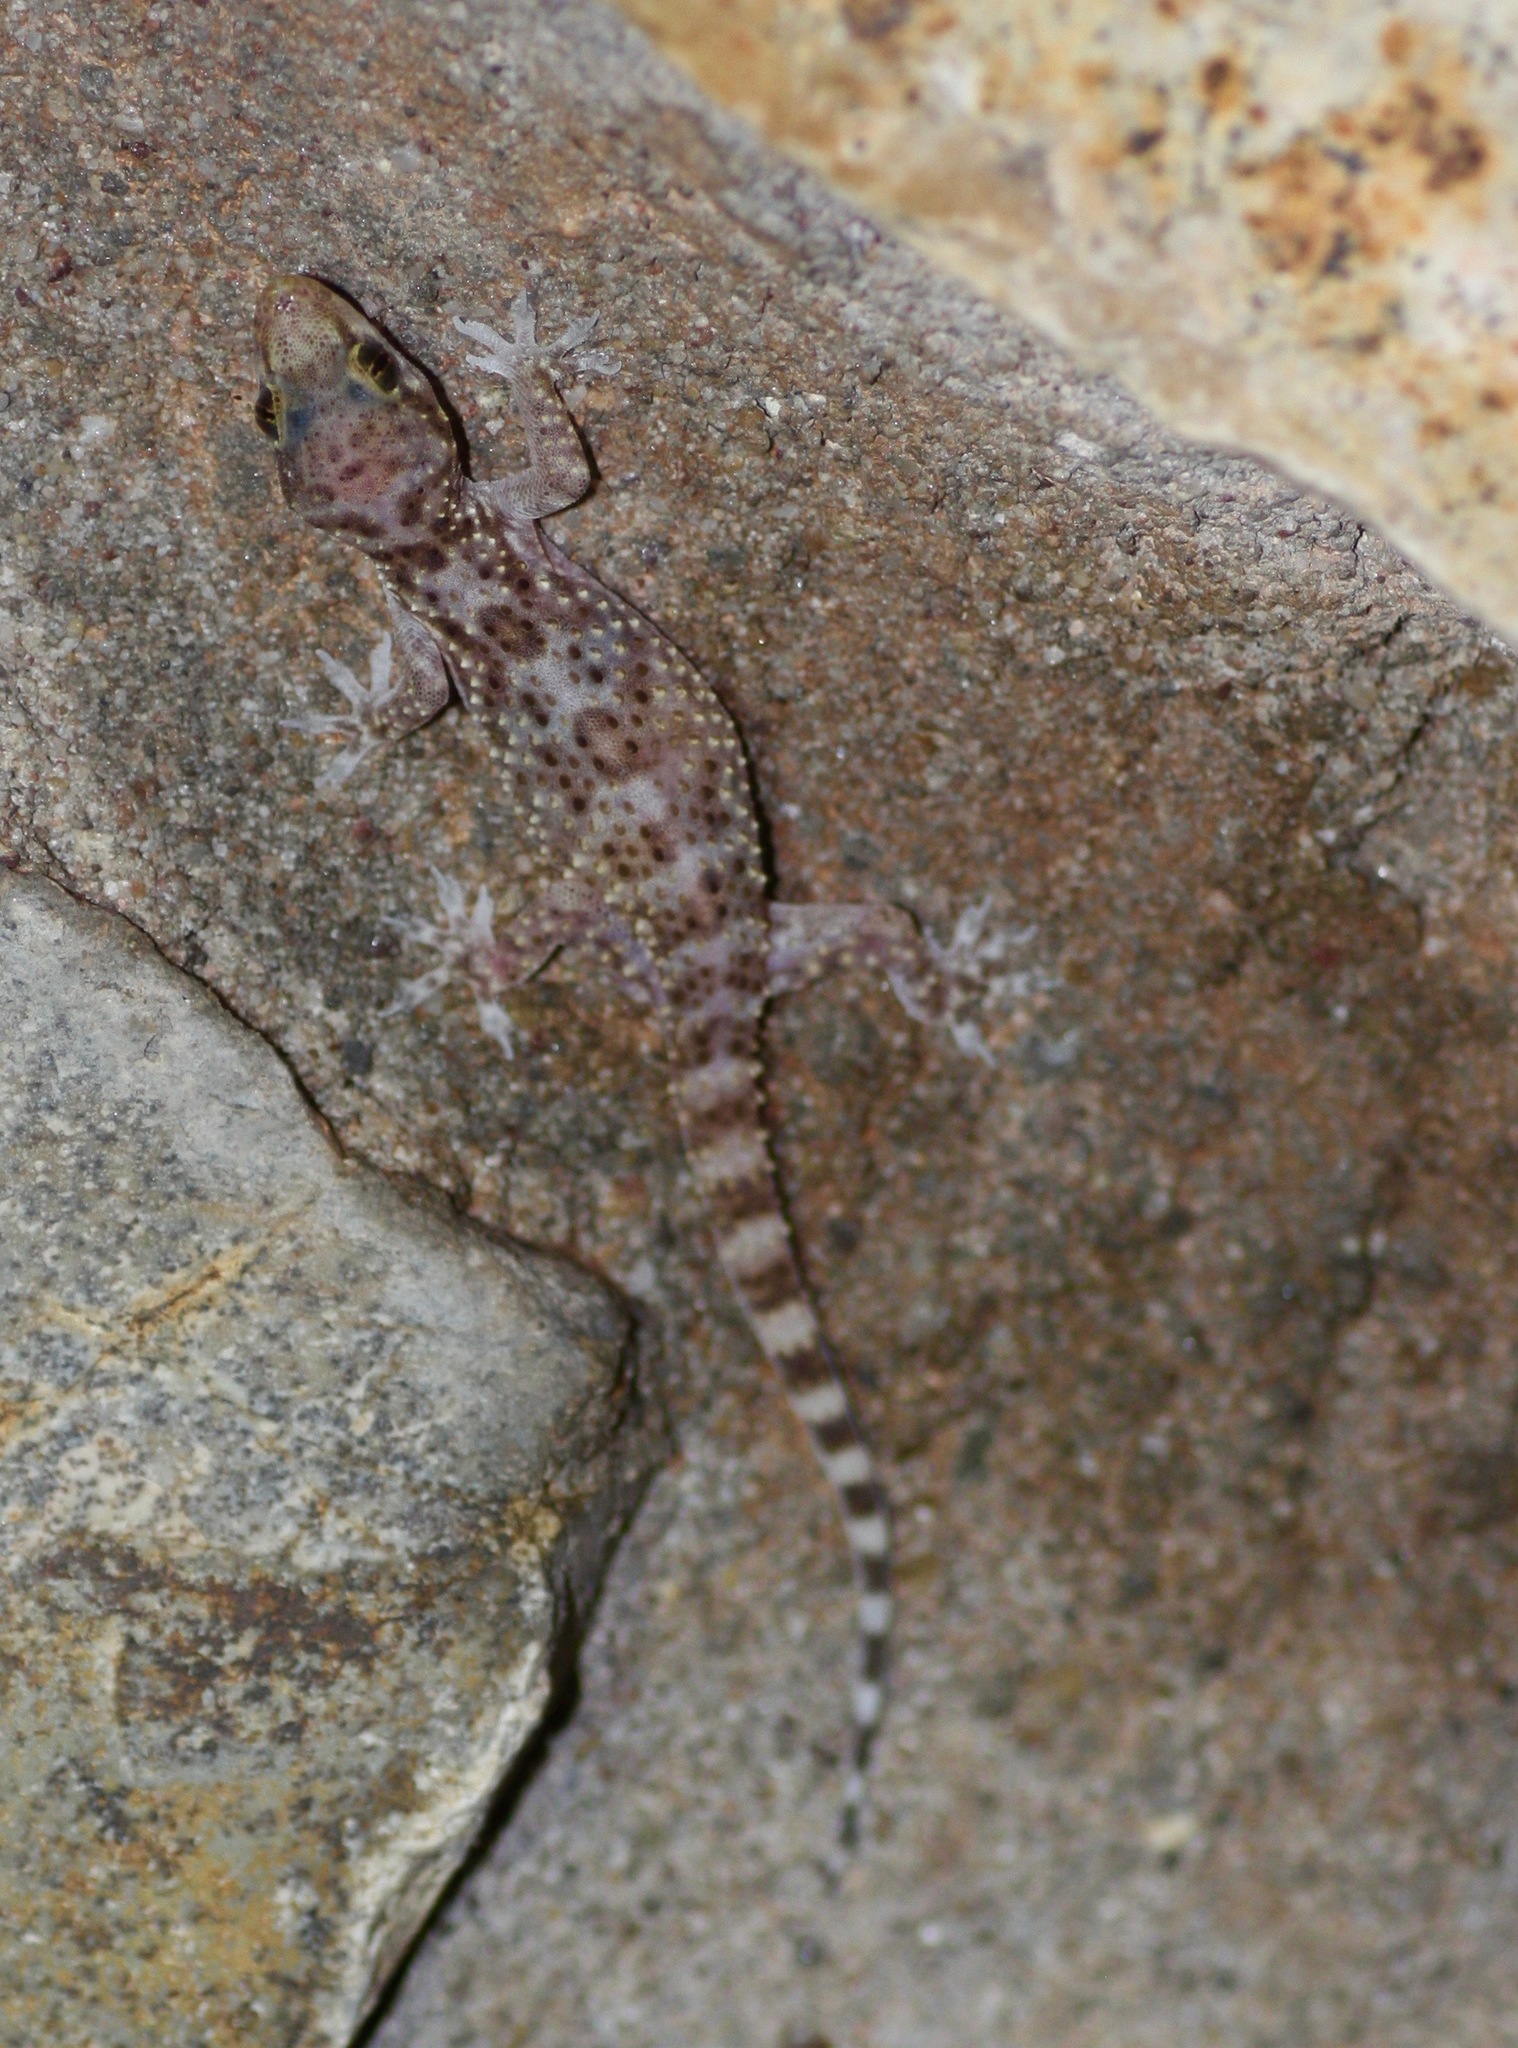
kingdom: Animalia
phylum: Chordata
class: Squamata
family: Gekkonidae
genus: Hemidactylus
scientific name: Hemidactylus turcicus
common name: Turkish gecko
